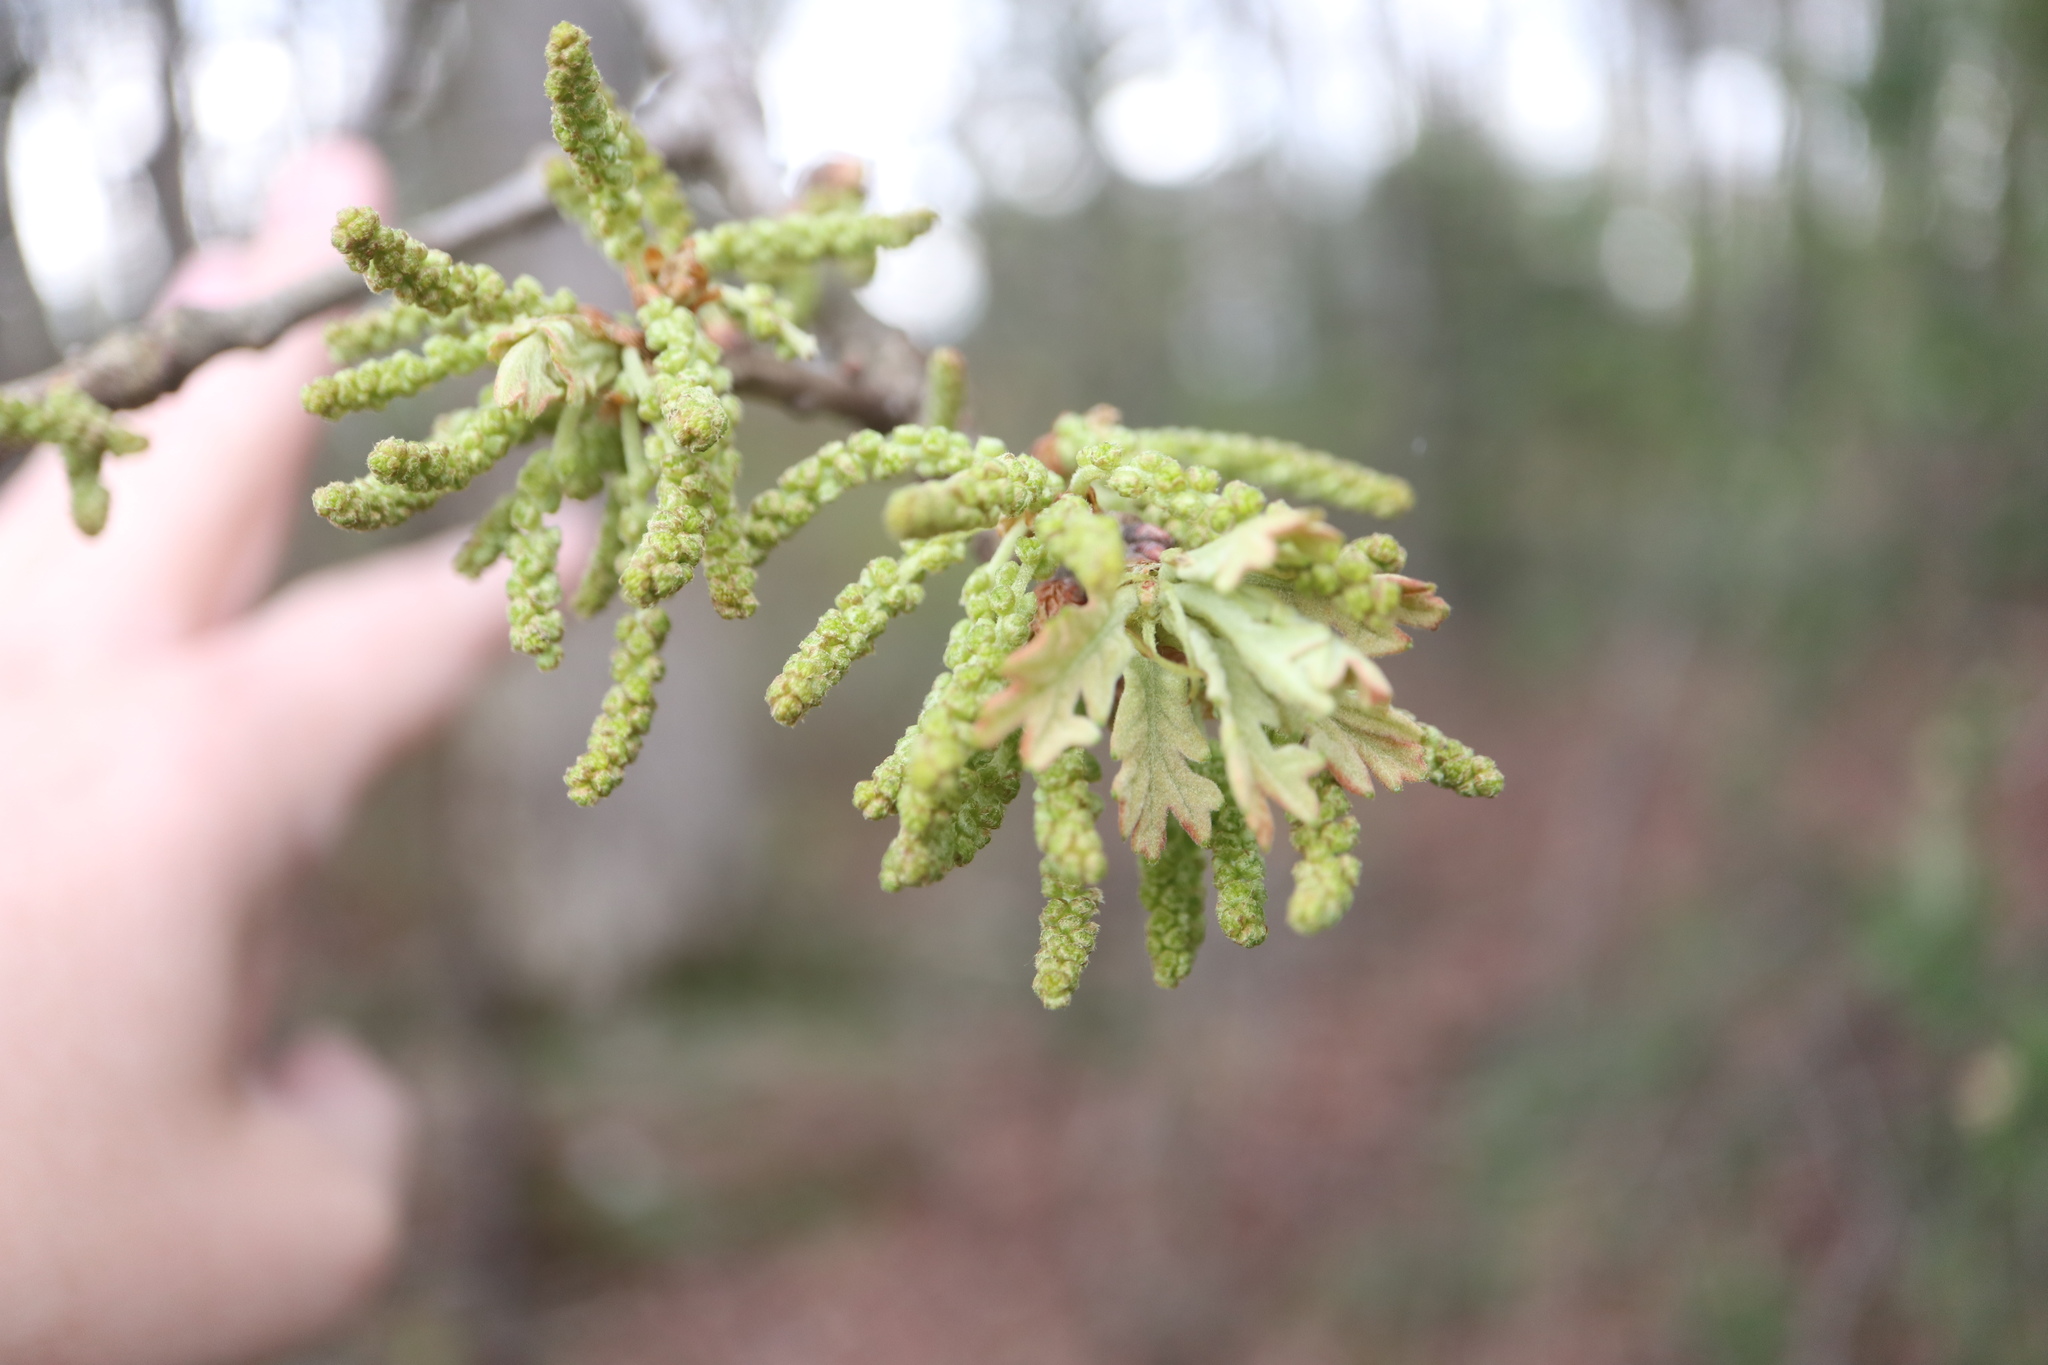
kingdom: Plantae
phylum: Tracheophyta
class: Magnoliopsida
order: Fagales
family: Fagaceae
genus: Quercus
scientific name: Quercus stellata
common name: Post oak
